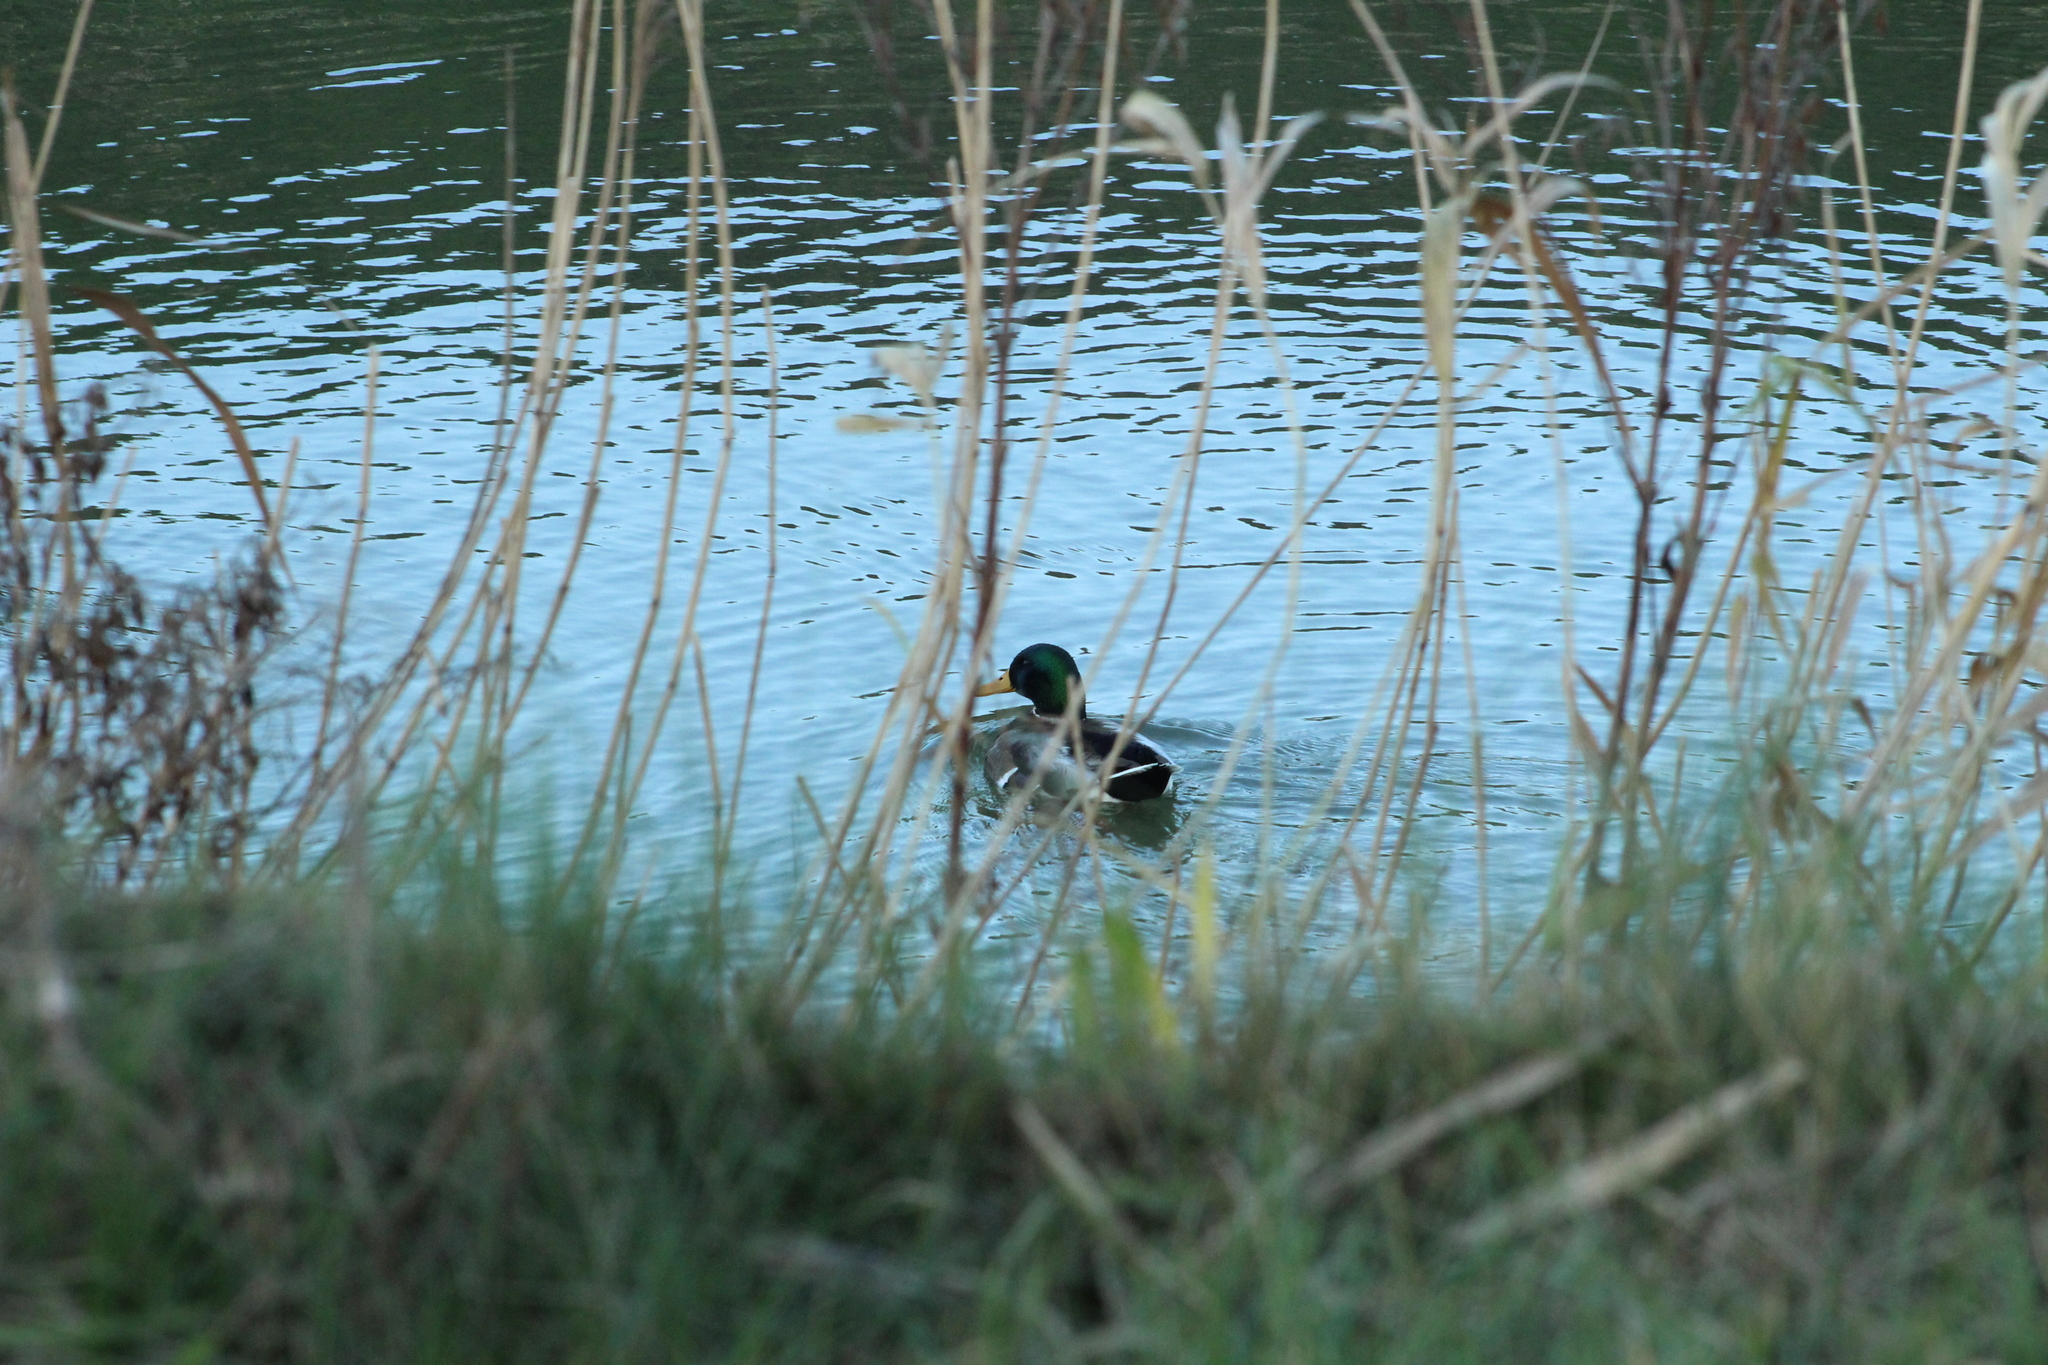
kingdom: Animalia
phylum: Chordata
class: Aves
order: Anseriformes
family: Anatidae
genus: Anas
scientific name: Anas platyrhynchos
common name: Mallard
